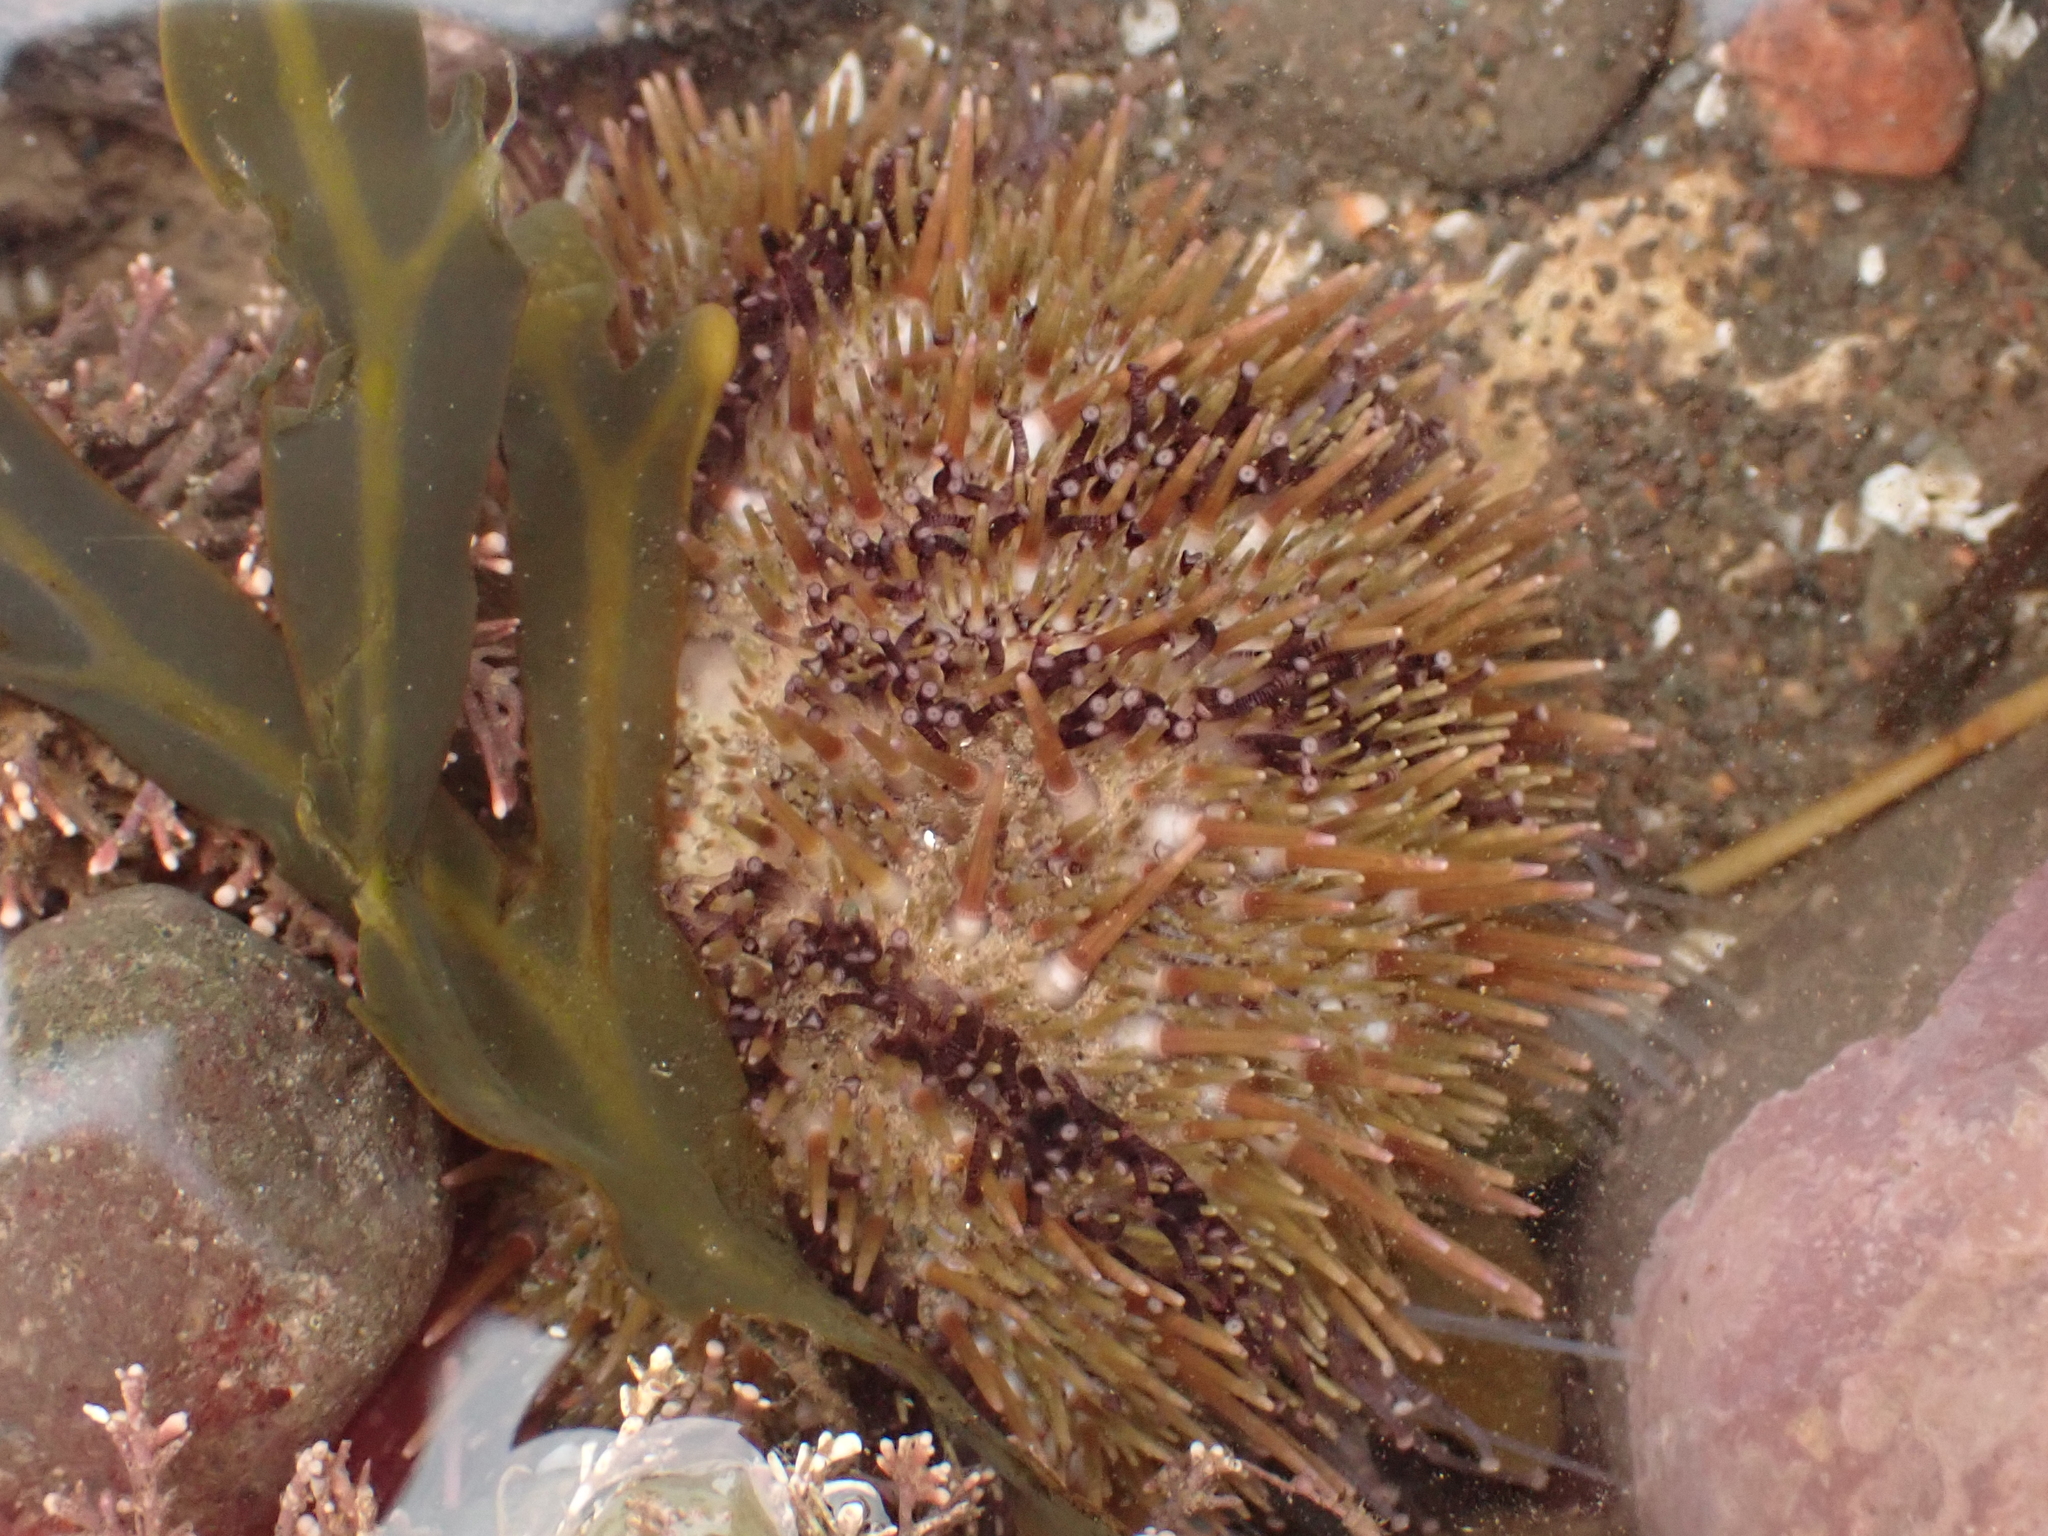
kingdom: Animalia
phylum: Echinodermata
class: Echinoidea
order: Camarodonta
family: Strongylocentrotidae
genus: Strongylocentrotus
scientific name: Strongylocentrotus droebachiensis
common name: Northern sea urchin
